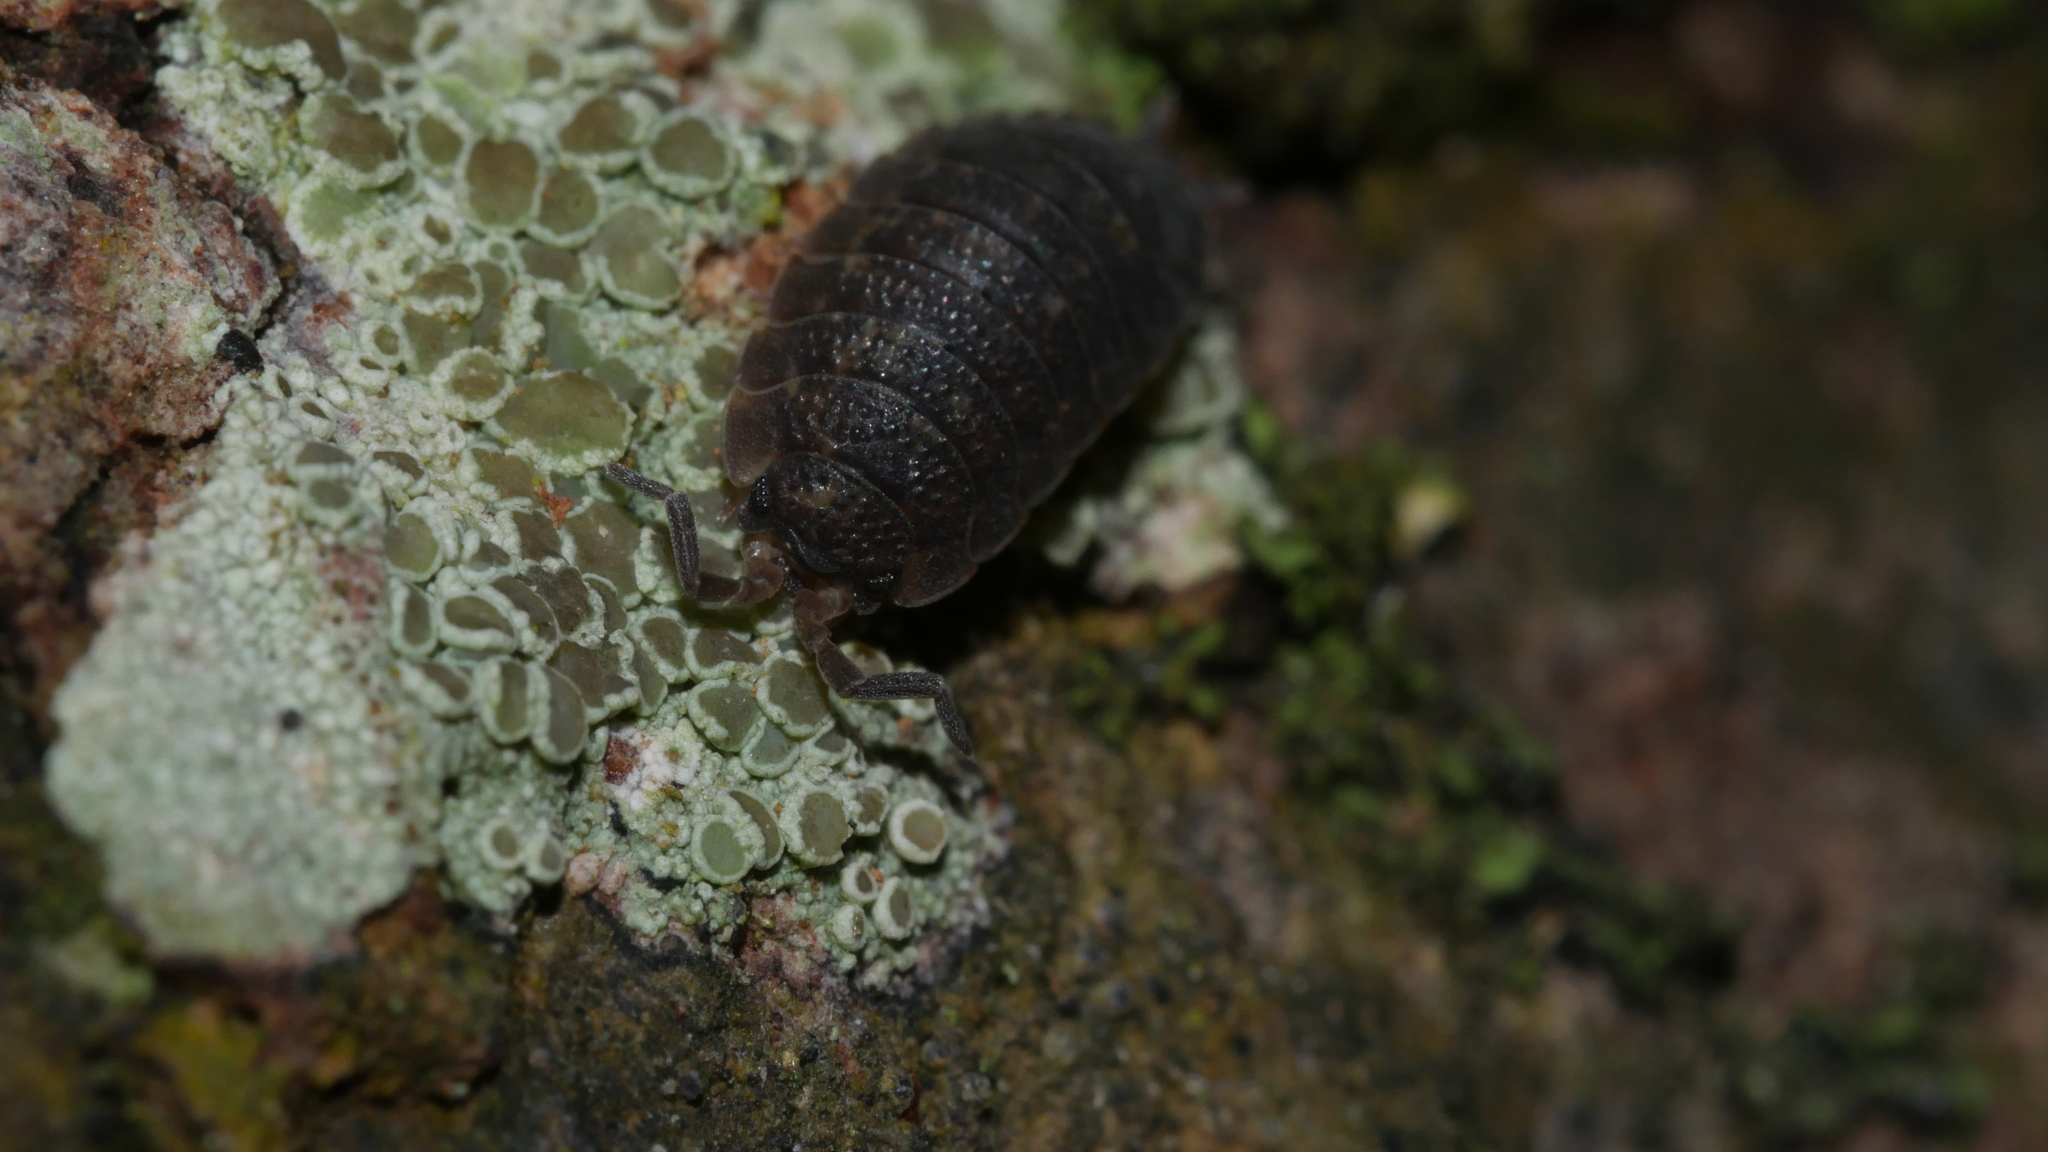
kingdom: Animalia
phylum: Arthropoda
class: Malacostraca
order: Isopoda
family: Porcellionidae
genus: Porcellio
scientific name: Porcellio scaber
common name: Common rough woodlouse
